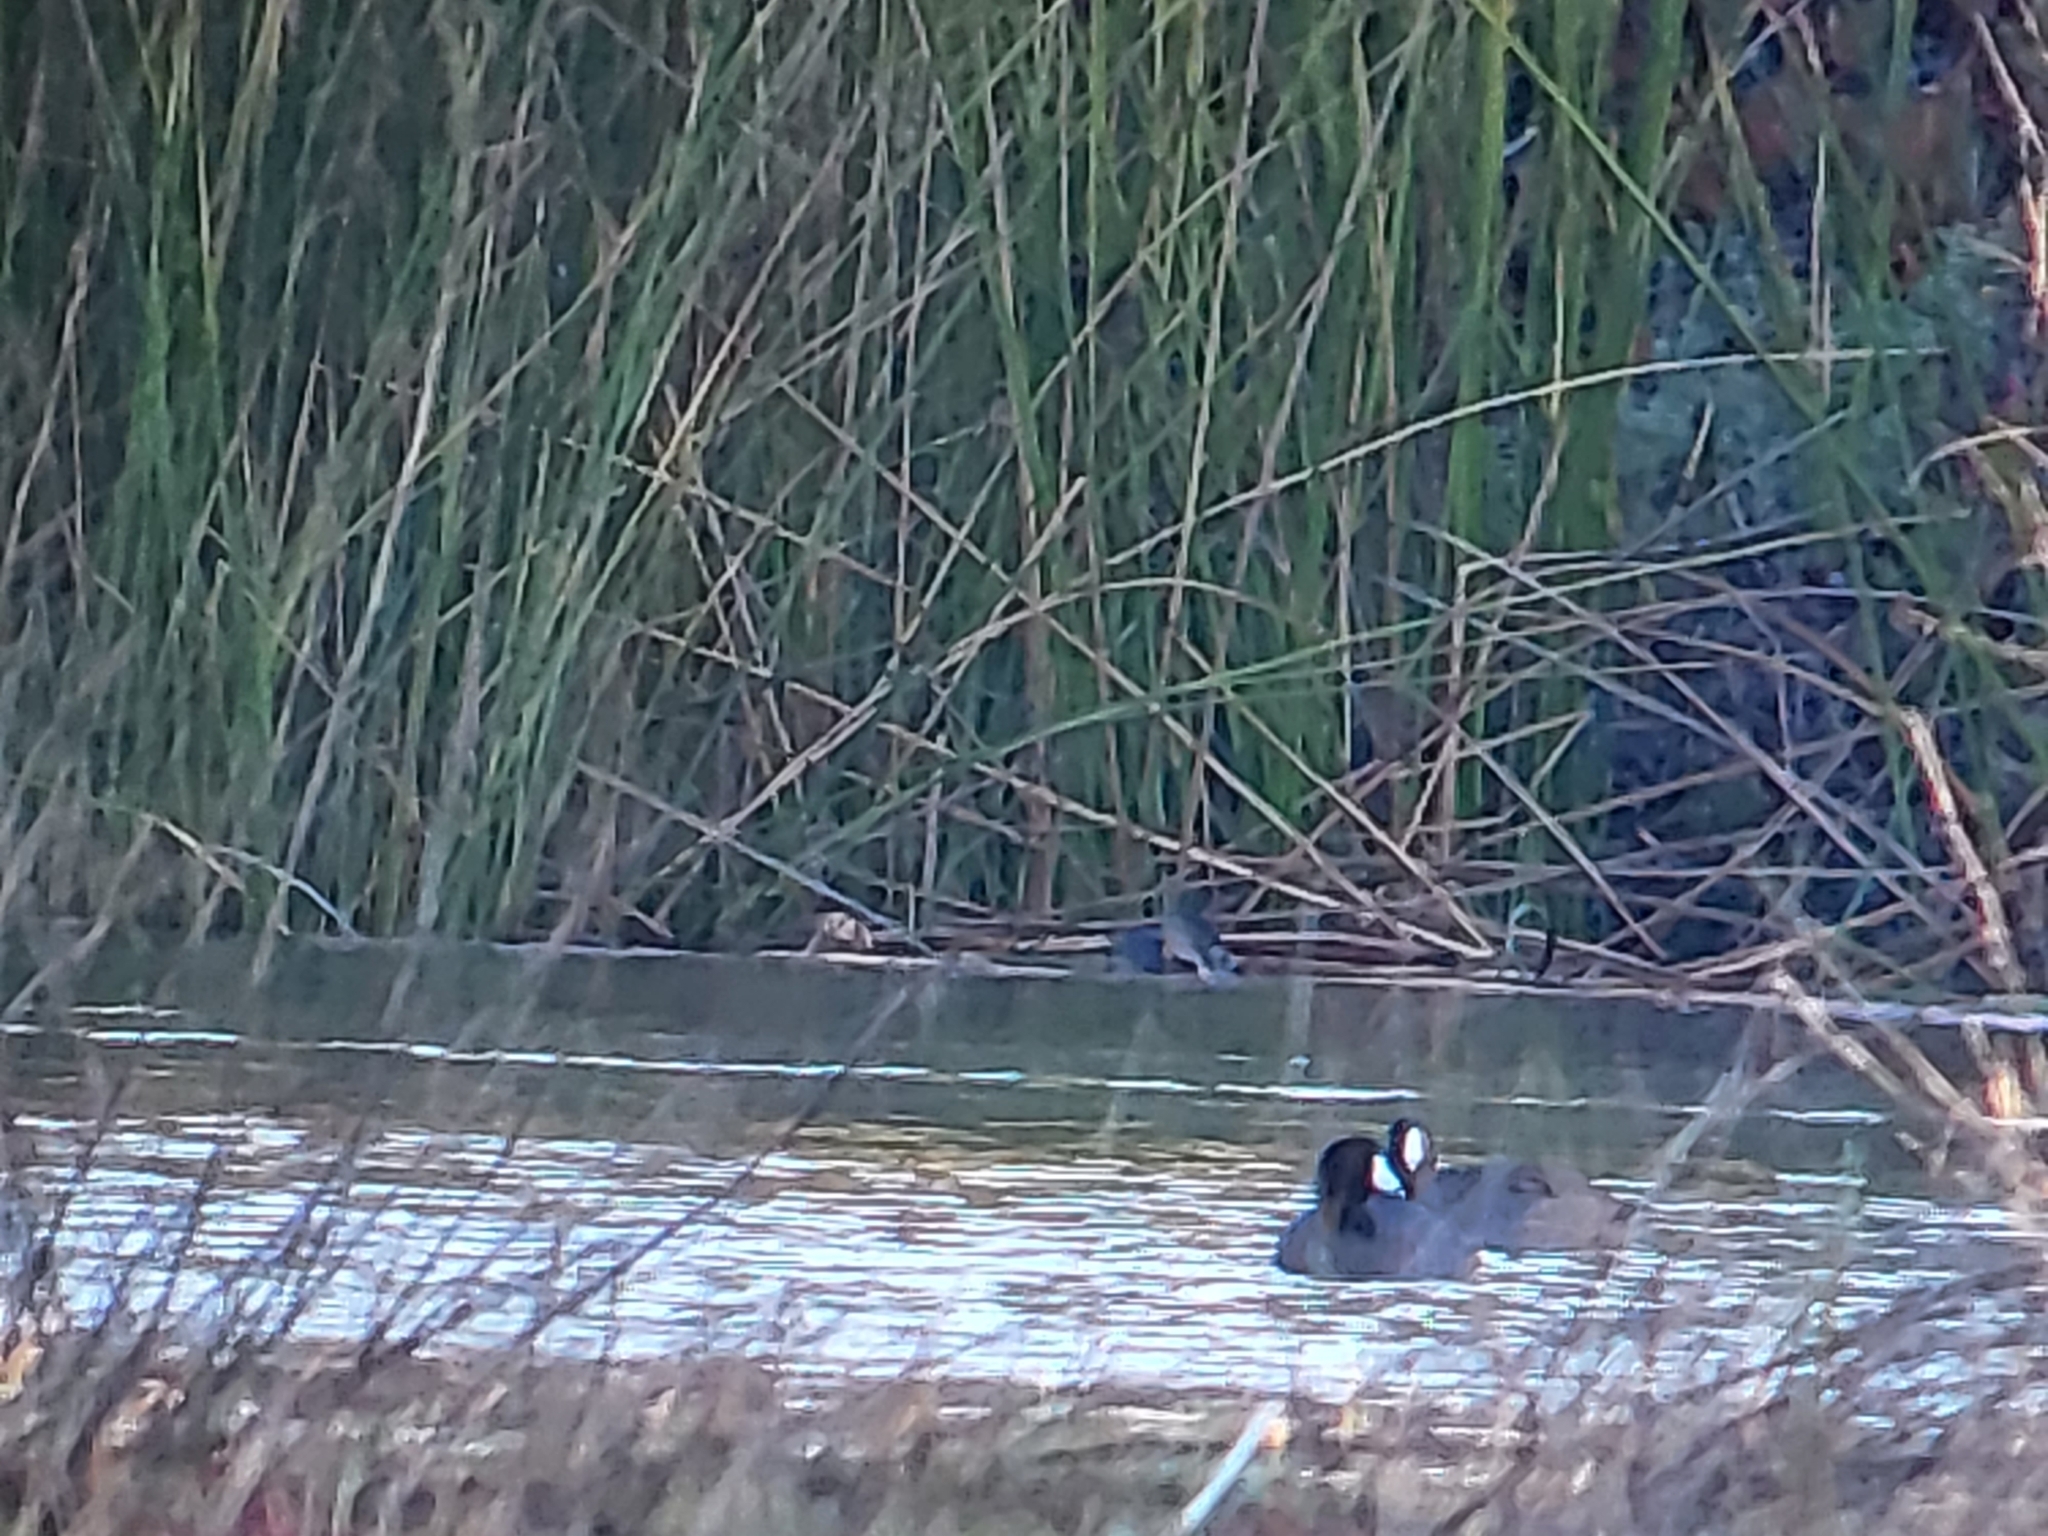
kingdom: Animalia
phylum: Chordata
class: Aves
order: Gruiformes
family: Rallidae
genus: Fulica
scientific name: Fulica americana
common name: American coot
